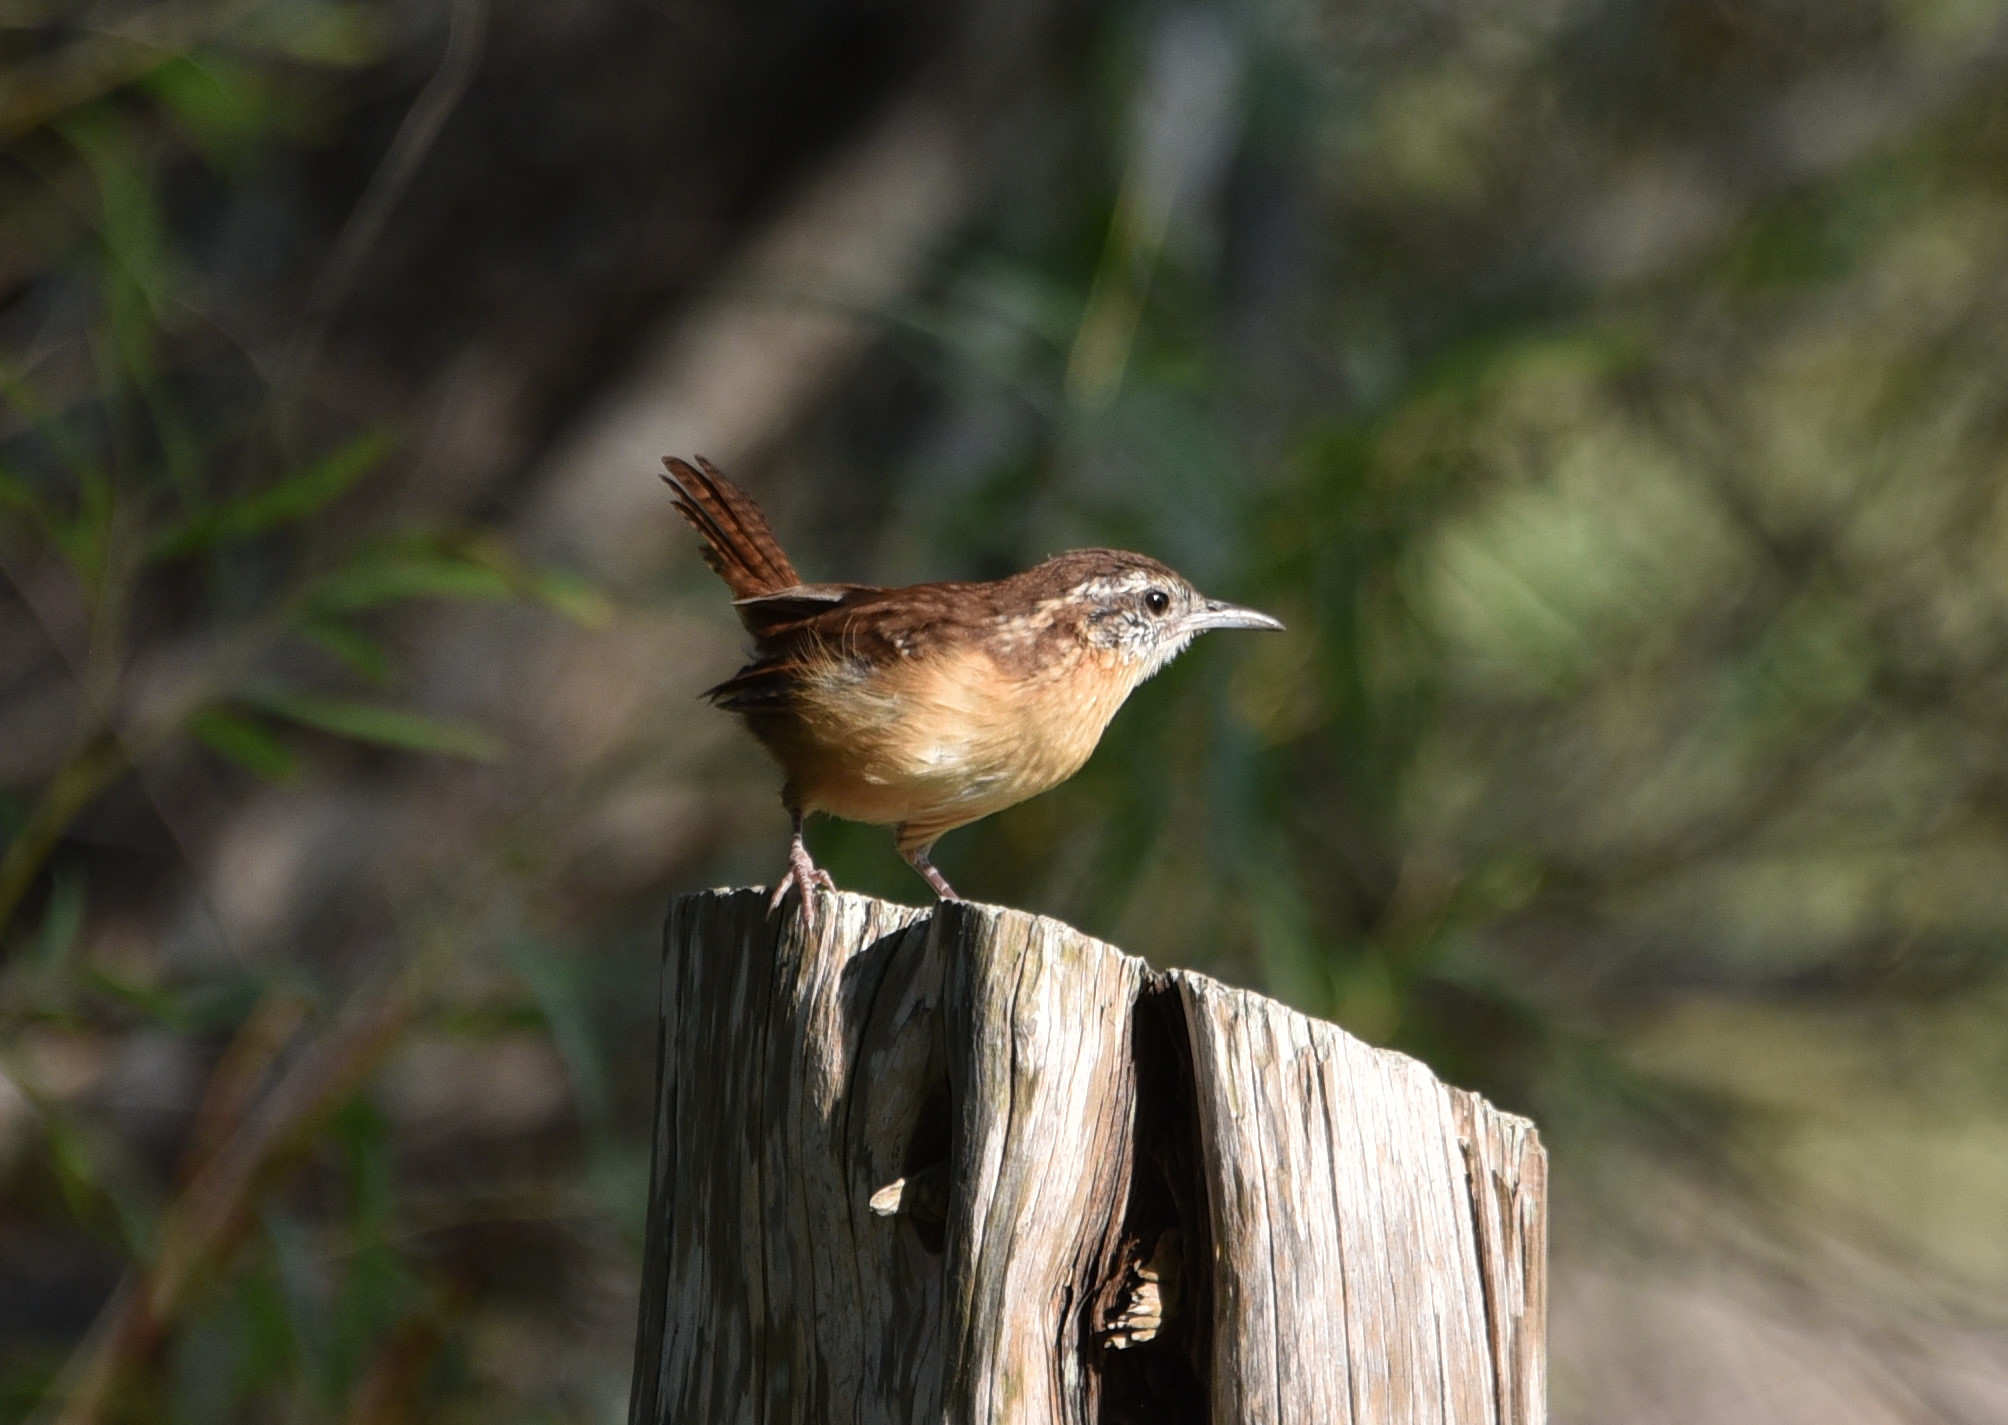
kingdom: Animalia
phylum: Chordata
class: Aves
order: Passeriformes
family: Troglodytidae
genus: Thryothorus
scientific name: Thryothorus ludovicianus
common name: Carolina wren
